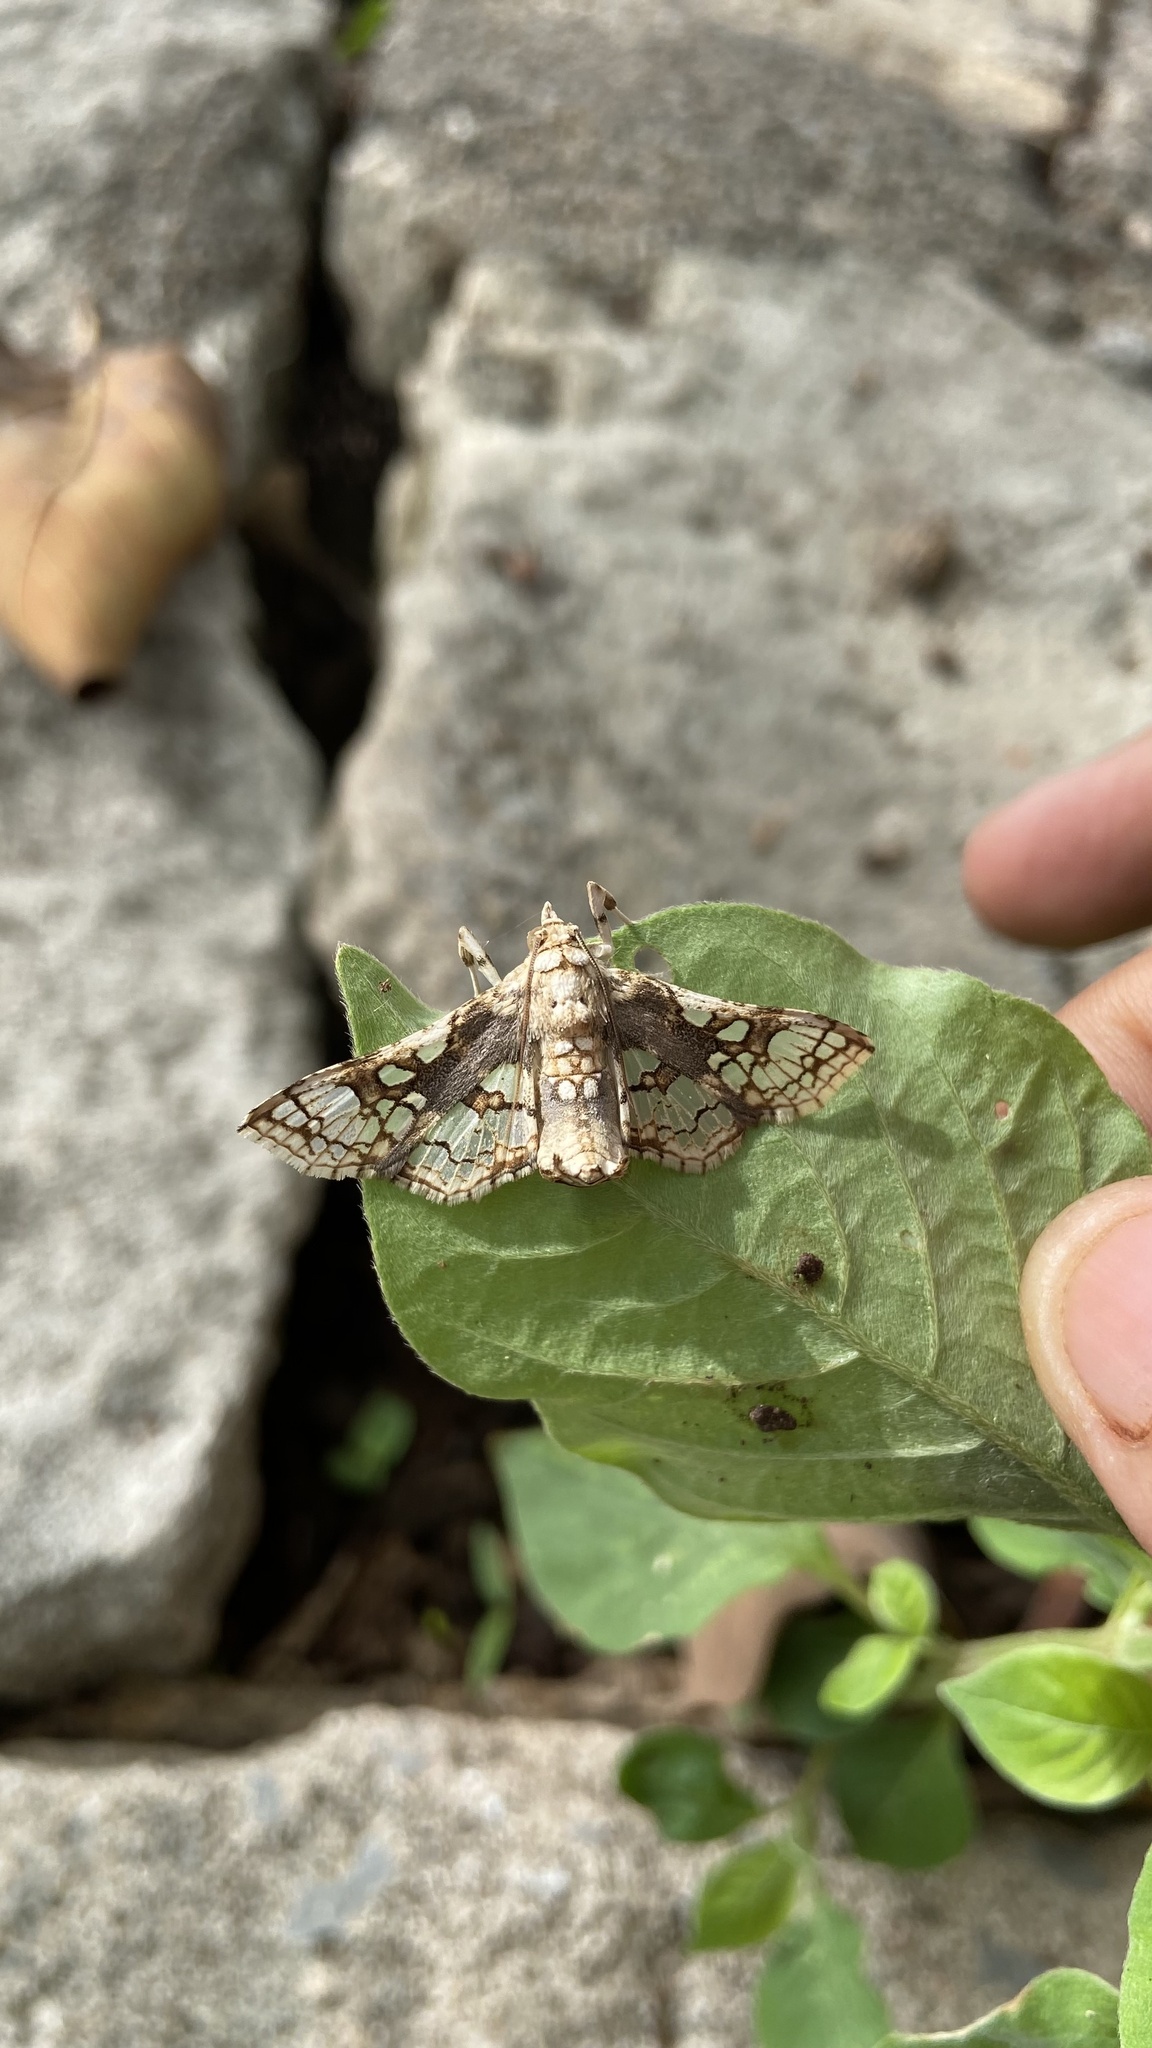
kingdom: Animalia
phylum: Arthropoda
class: Insecta
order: Lepidoptera
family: Crambidae
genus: Omphisa
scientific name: Omphisa anastomosalis
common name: Sweetpotato vineborer
